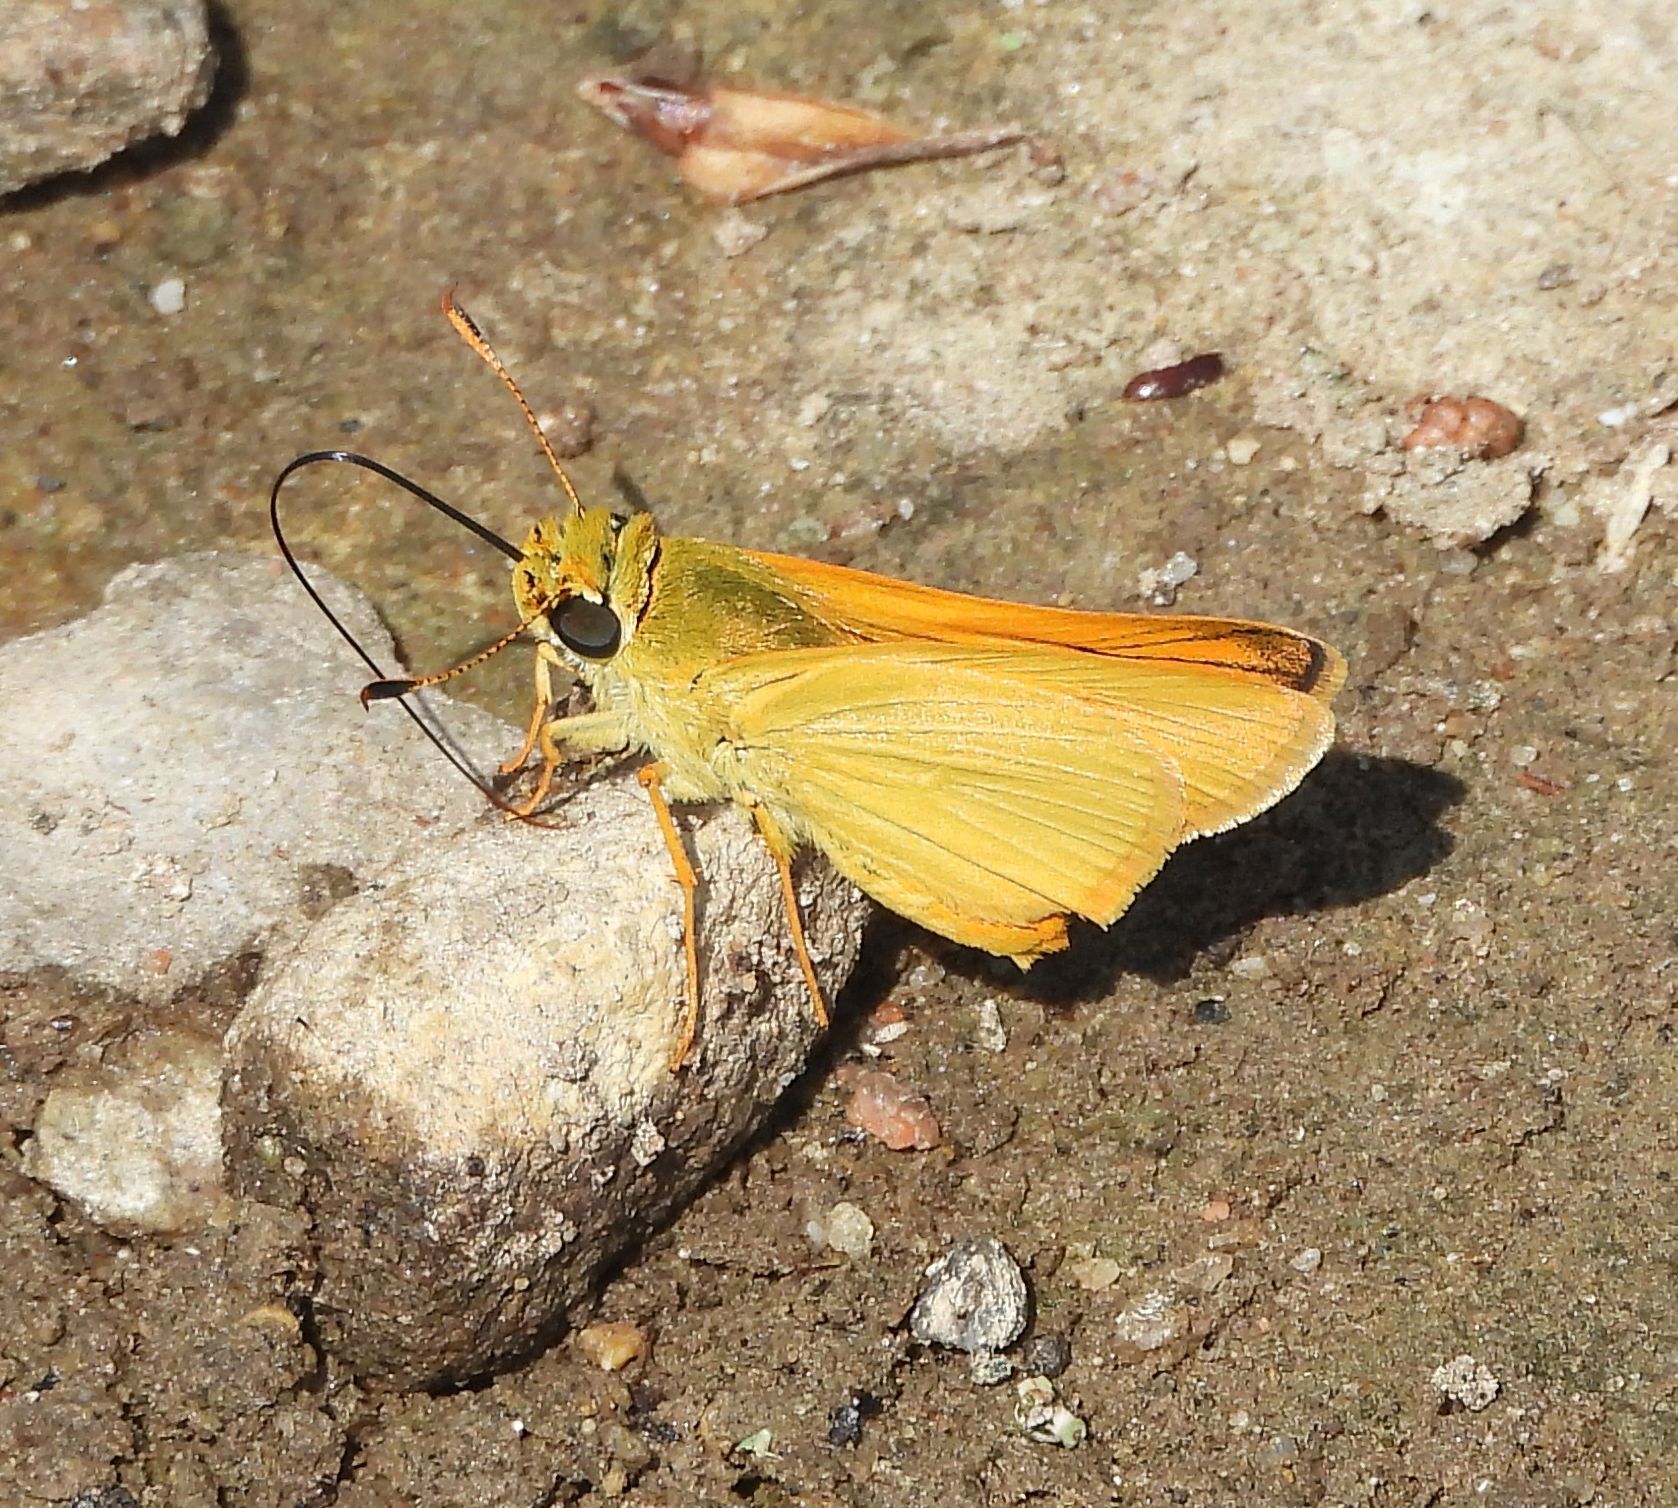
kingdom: Animalia
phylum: Arthropoda
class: Insecta
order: Lepidoptera
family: Hesperiidae
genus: Atrytone
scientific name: Atrytone delaware
